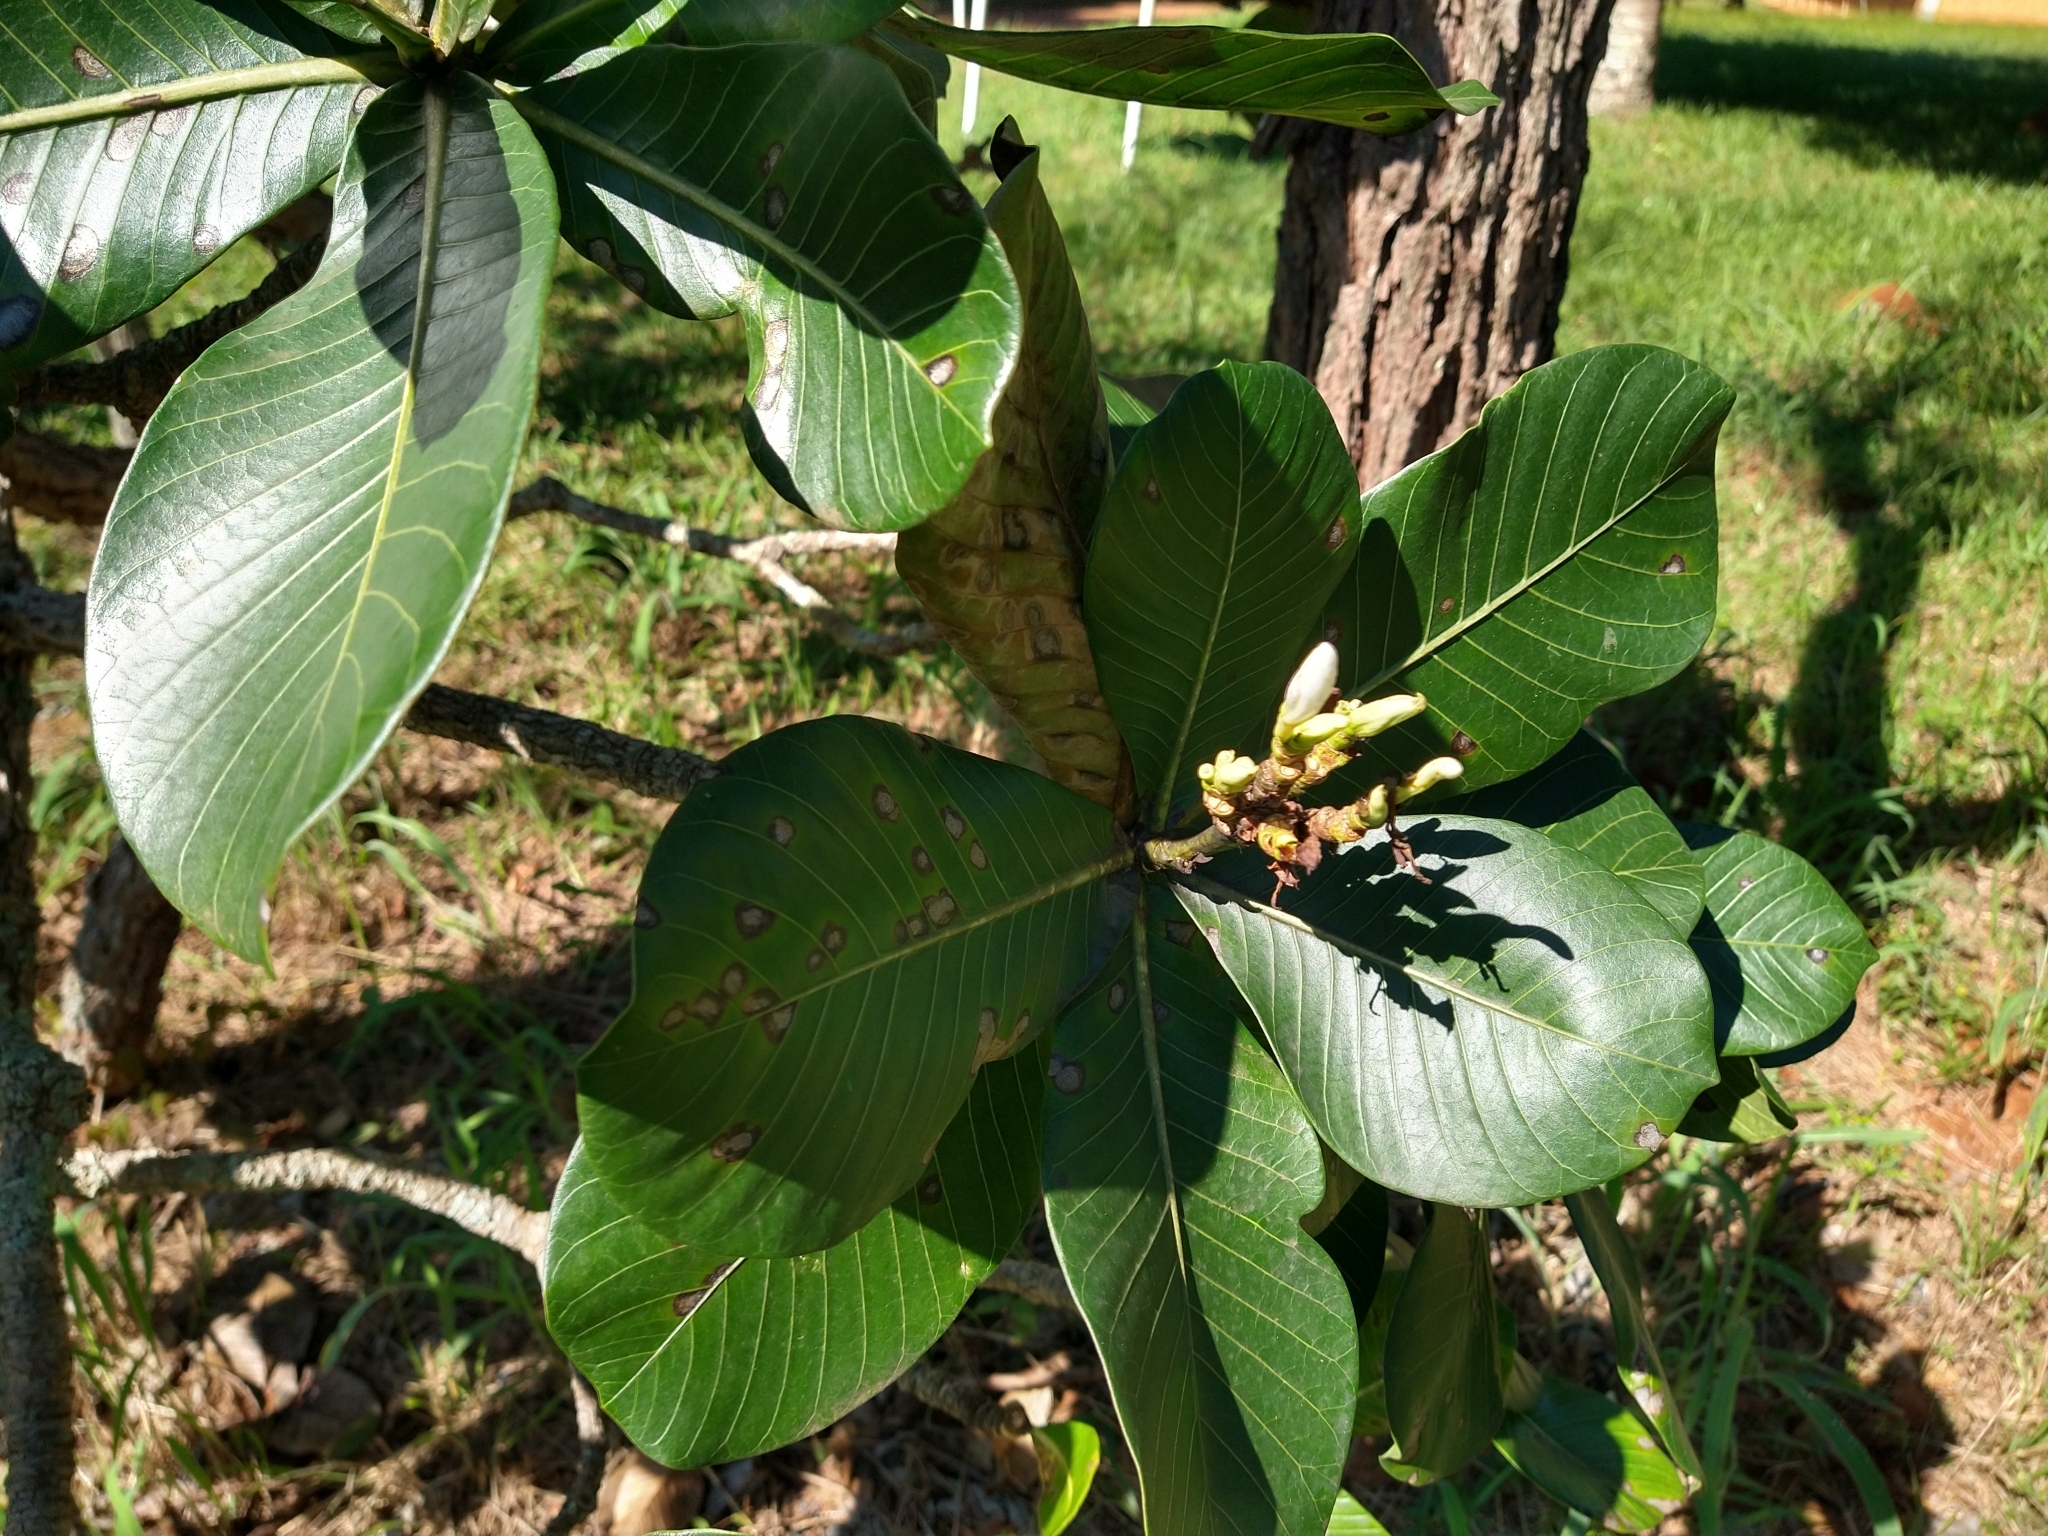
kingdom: Plantae
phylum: Tracheophyta
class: Magnoliopsida
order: Gentianales
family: Apocynaceae
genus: Himatanthus
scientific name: Himatanthus obovatus
